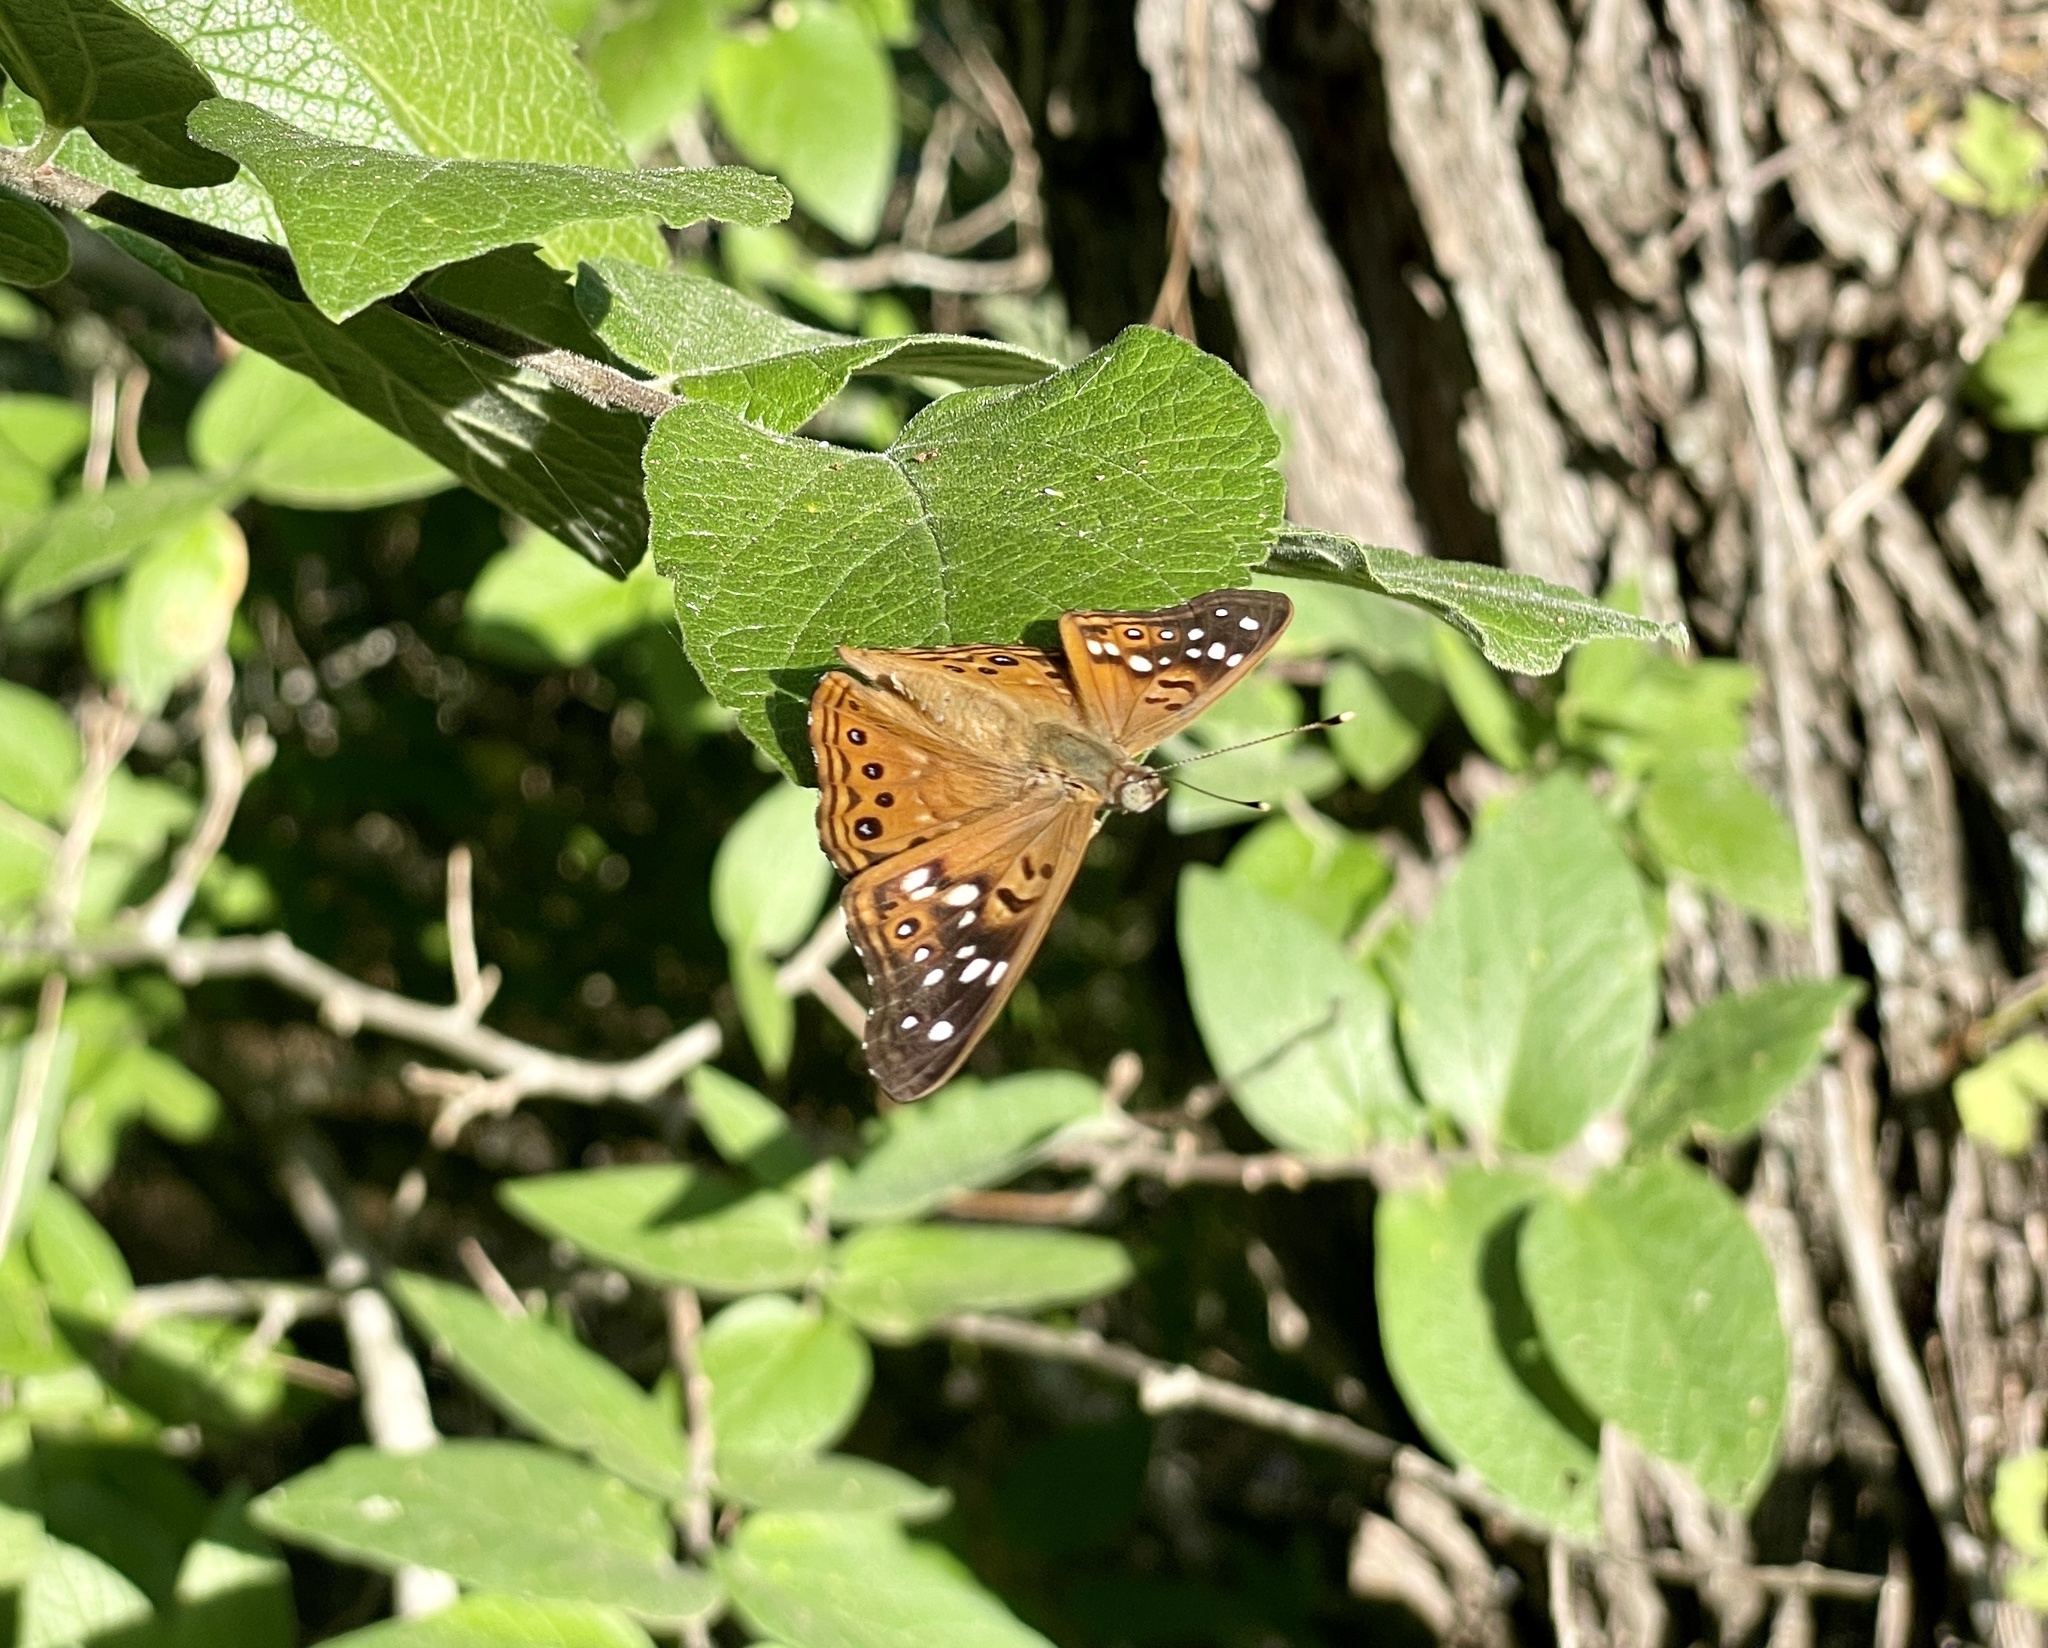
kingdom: Animalia
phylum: Arthropoda
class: Insecta
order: Lepidoptera
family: Nymphalidae
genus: Asterocampa
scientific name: Asterocampa celtis
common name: Hackberry emperor
